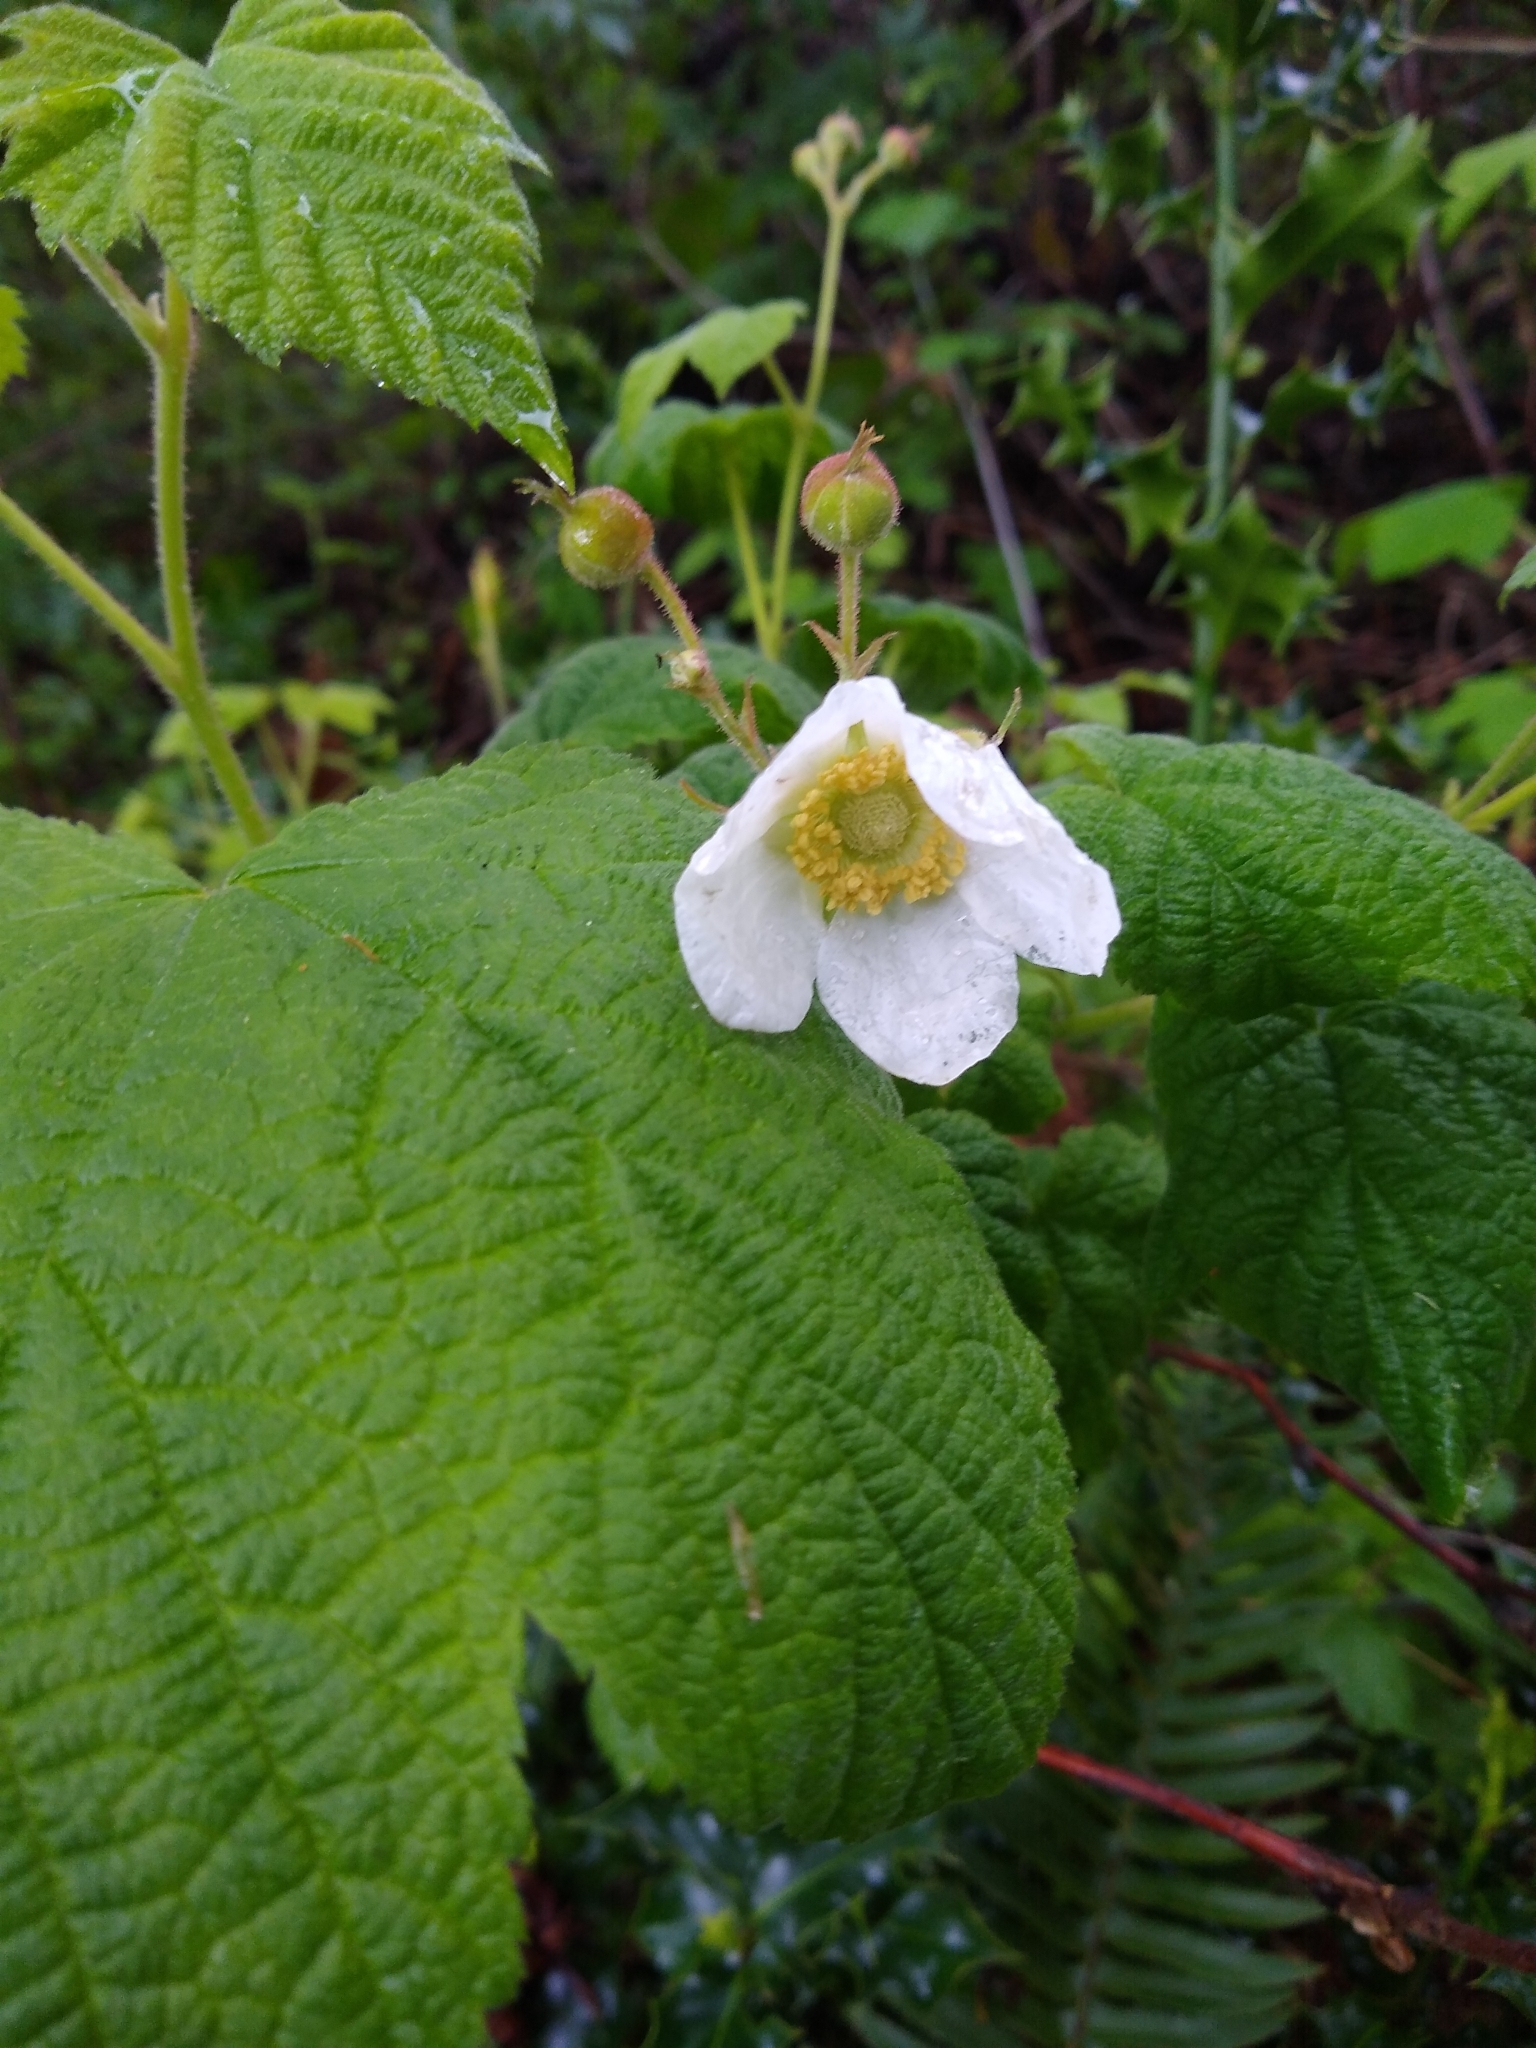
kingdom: Plantae
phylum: Tracheophyta
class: Magnoliopsida
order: Rosales
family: Rosaceae
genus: Rubus
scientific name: Rubus parviflorus
